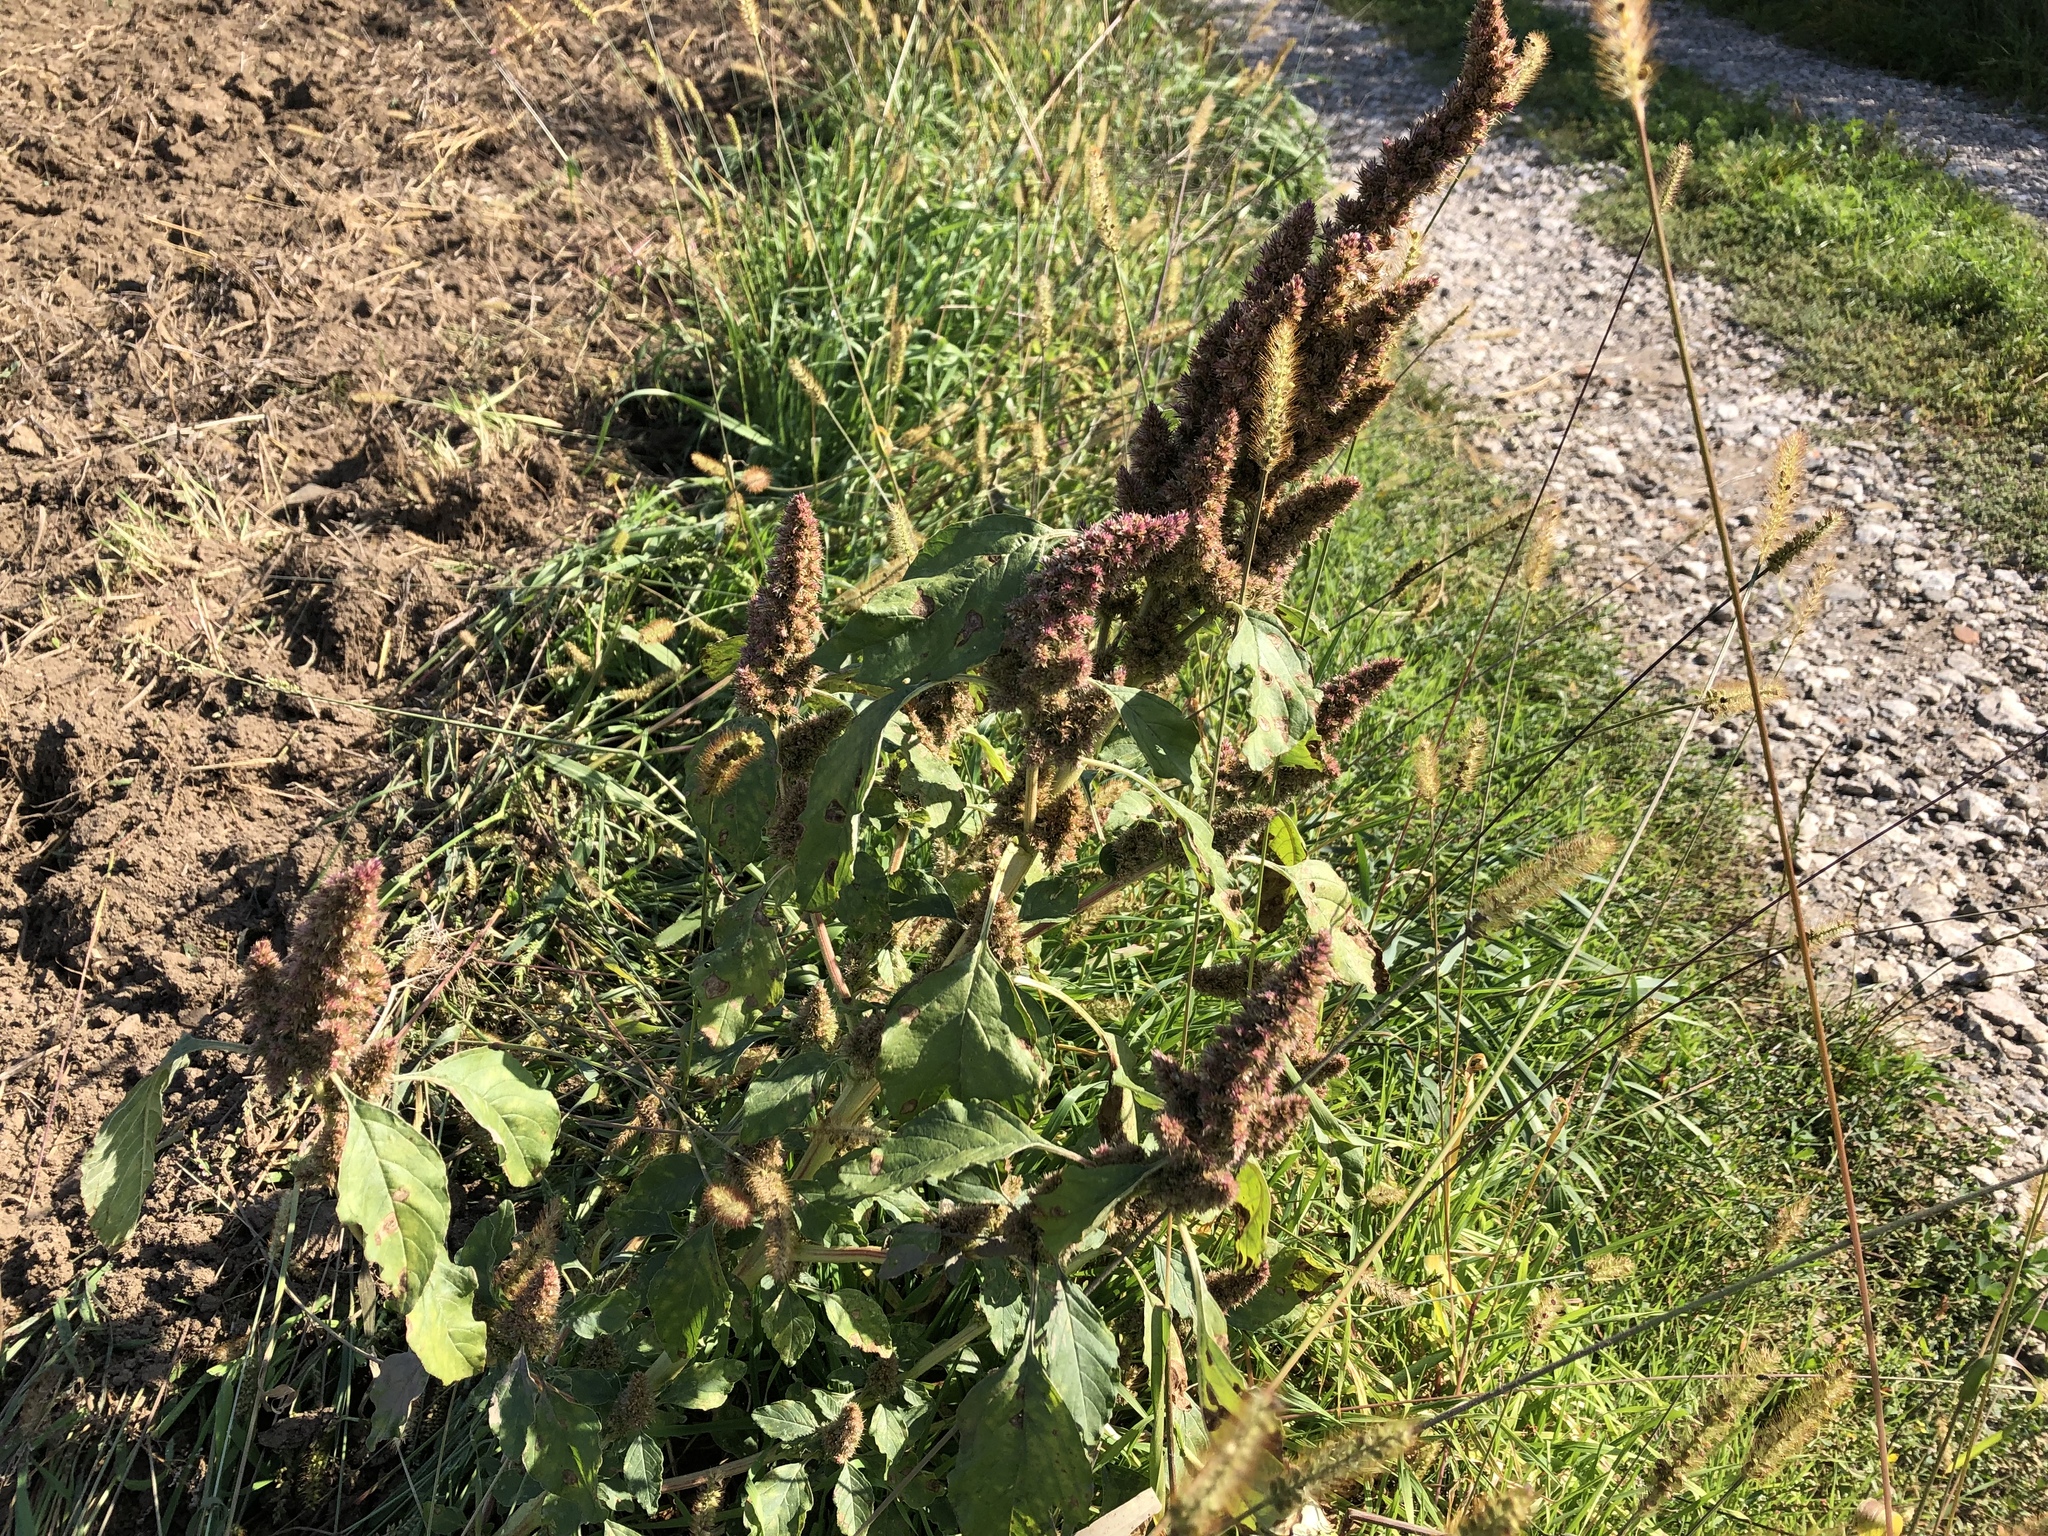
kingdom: Plantae
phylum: Tracheophyta
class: Magnoliopsida
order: Caryophyllales
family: Amaranthaceae
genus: Amaranthus
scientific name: Amaranthus retroflexus
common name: Redroot amaranth
